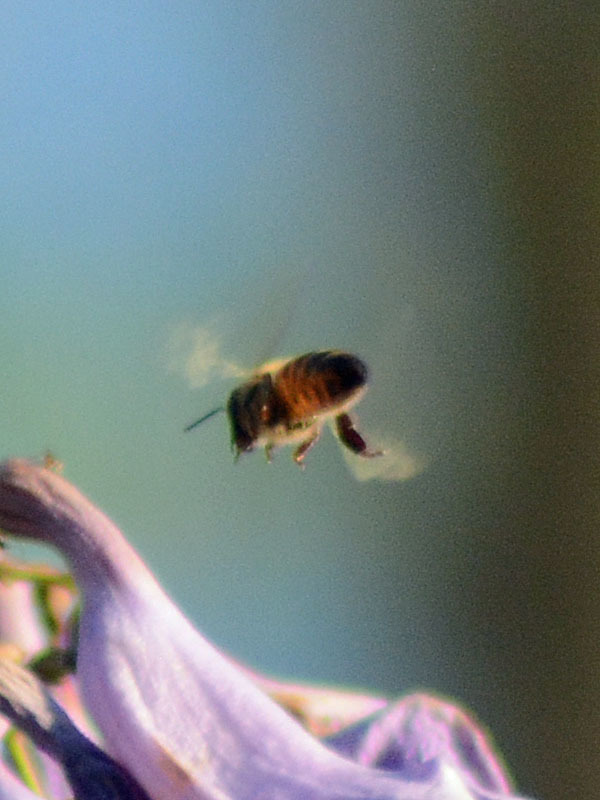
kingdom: Animalia
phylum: Arthropoda
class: Insecta
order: Hymenoptera
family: Apidae
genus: Apis
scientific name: Apis mellifera
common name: Honey bee
